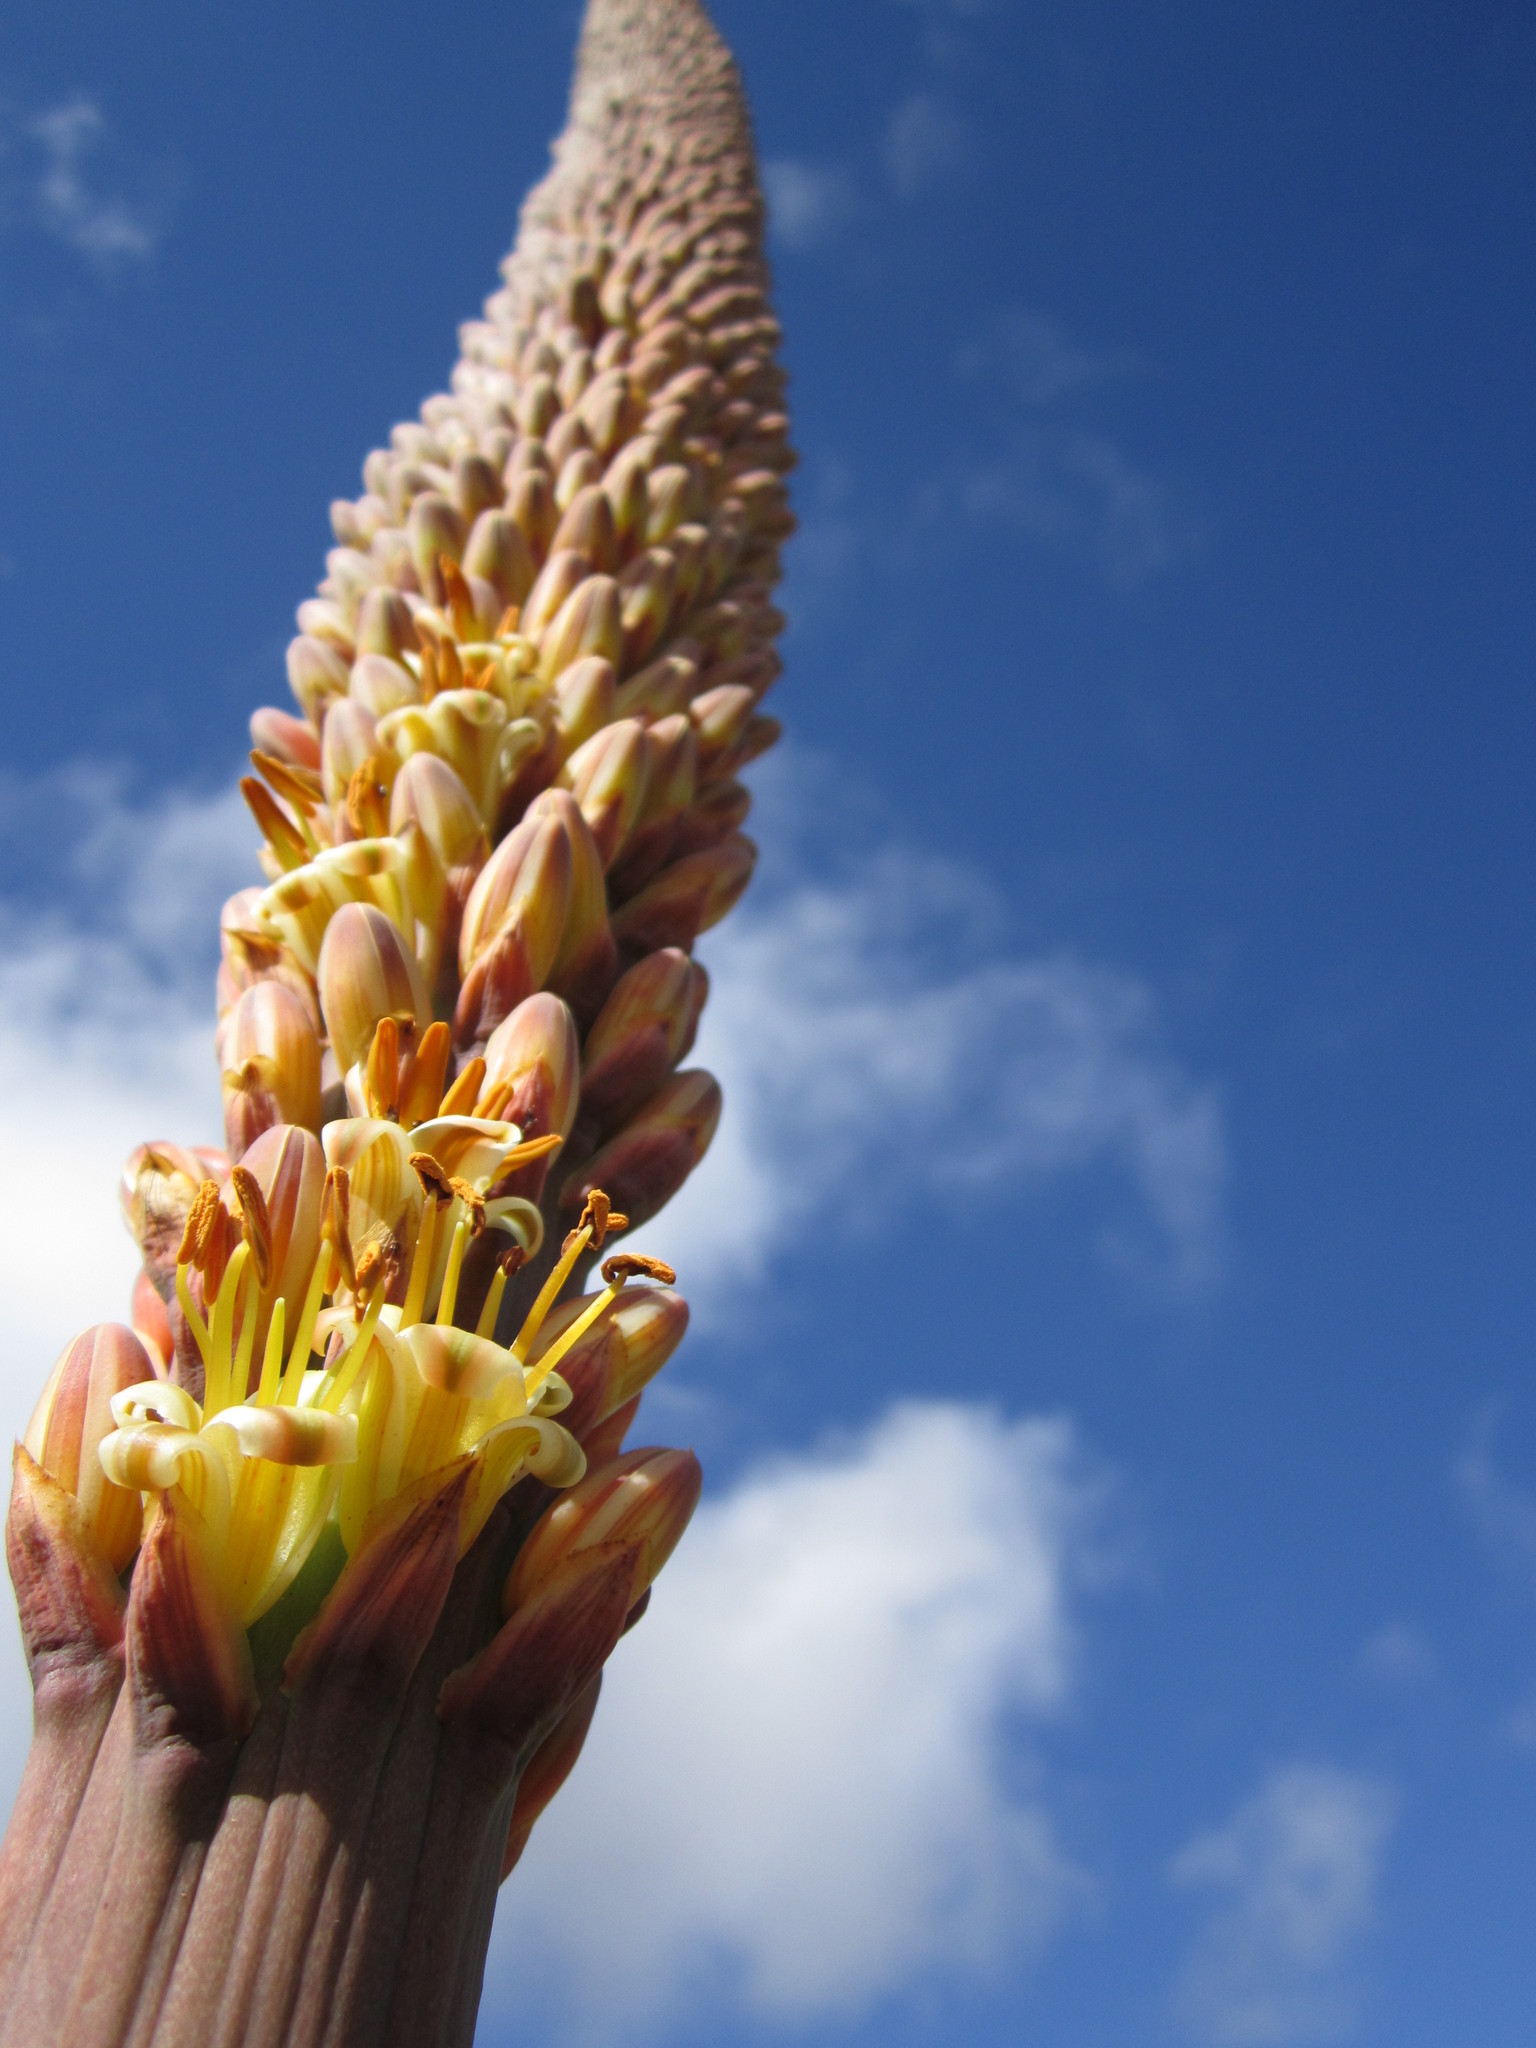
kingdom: Plantae
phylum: Tracheophyta
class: Liliopsida
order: Asparagales
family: Asphodelaceae
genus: Aloe
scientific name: Aloe macroclada
